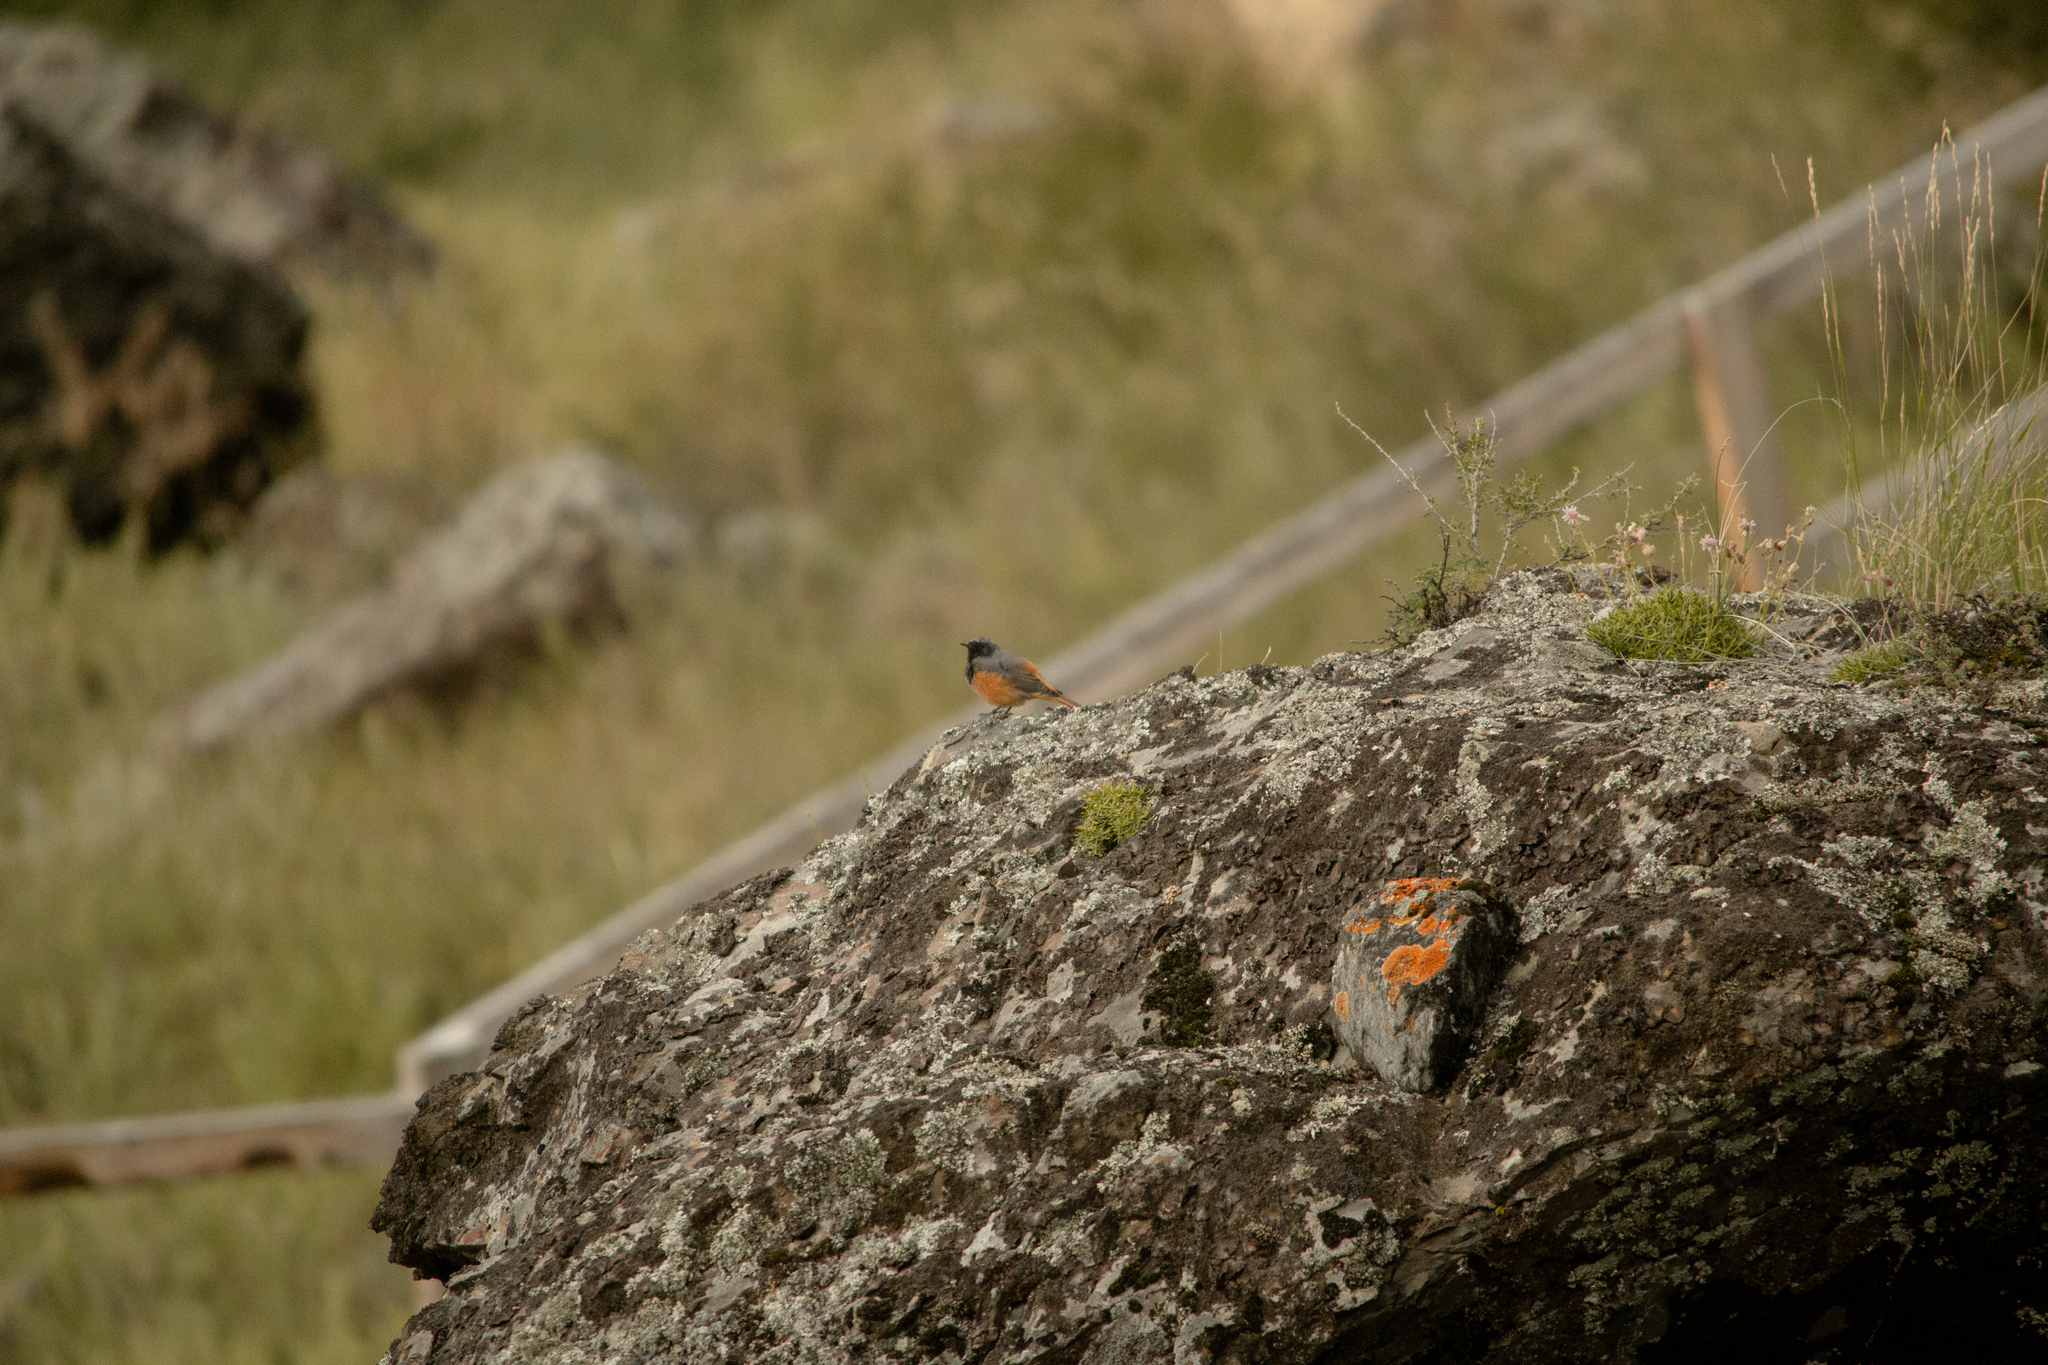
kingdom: Animalia
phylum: Chordata
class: Aves
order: Passeriformes
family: Muscicapidae
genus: Phoenicurus
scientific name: Phoenicurus ochruros
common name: Black redstart
